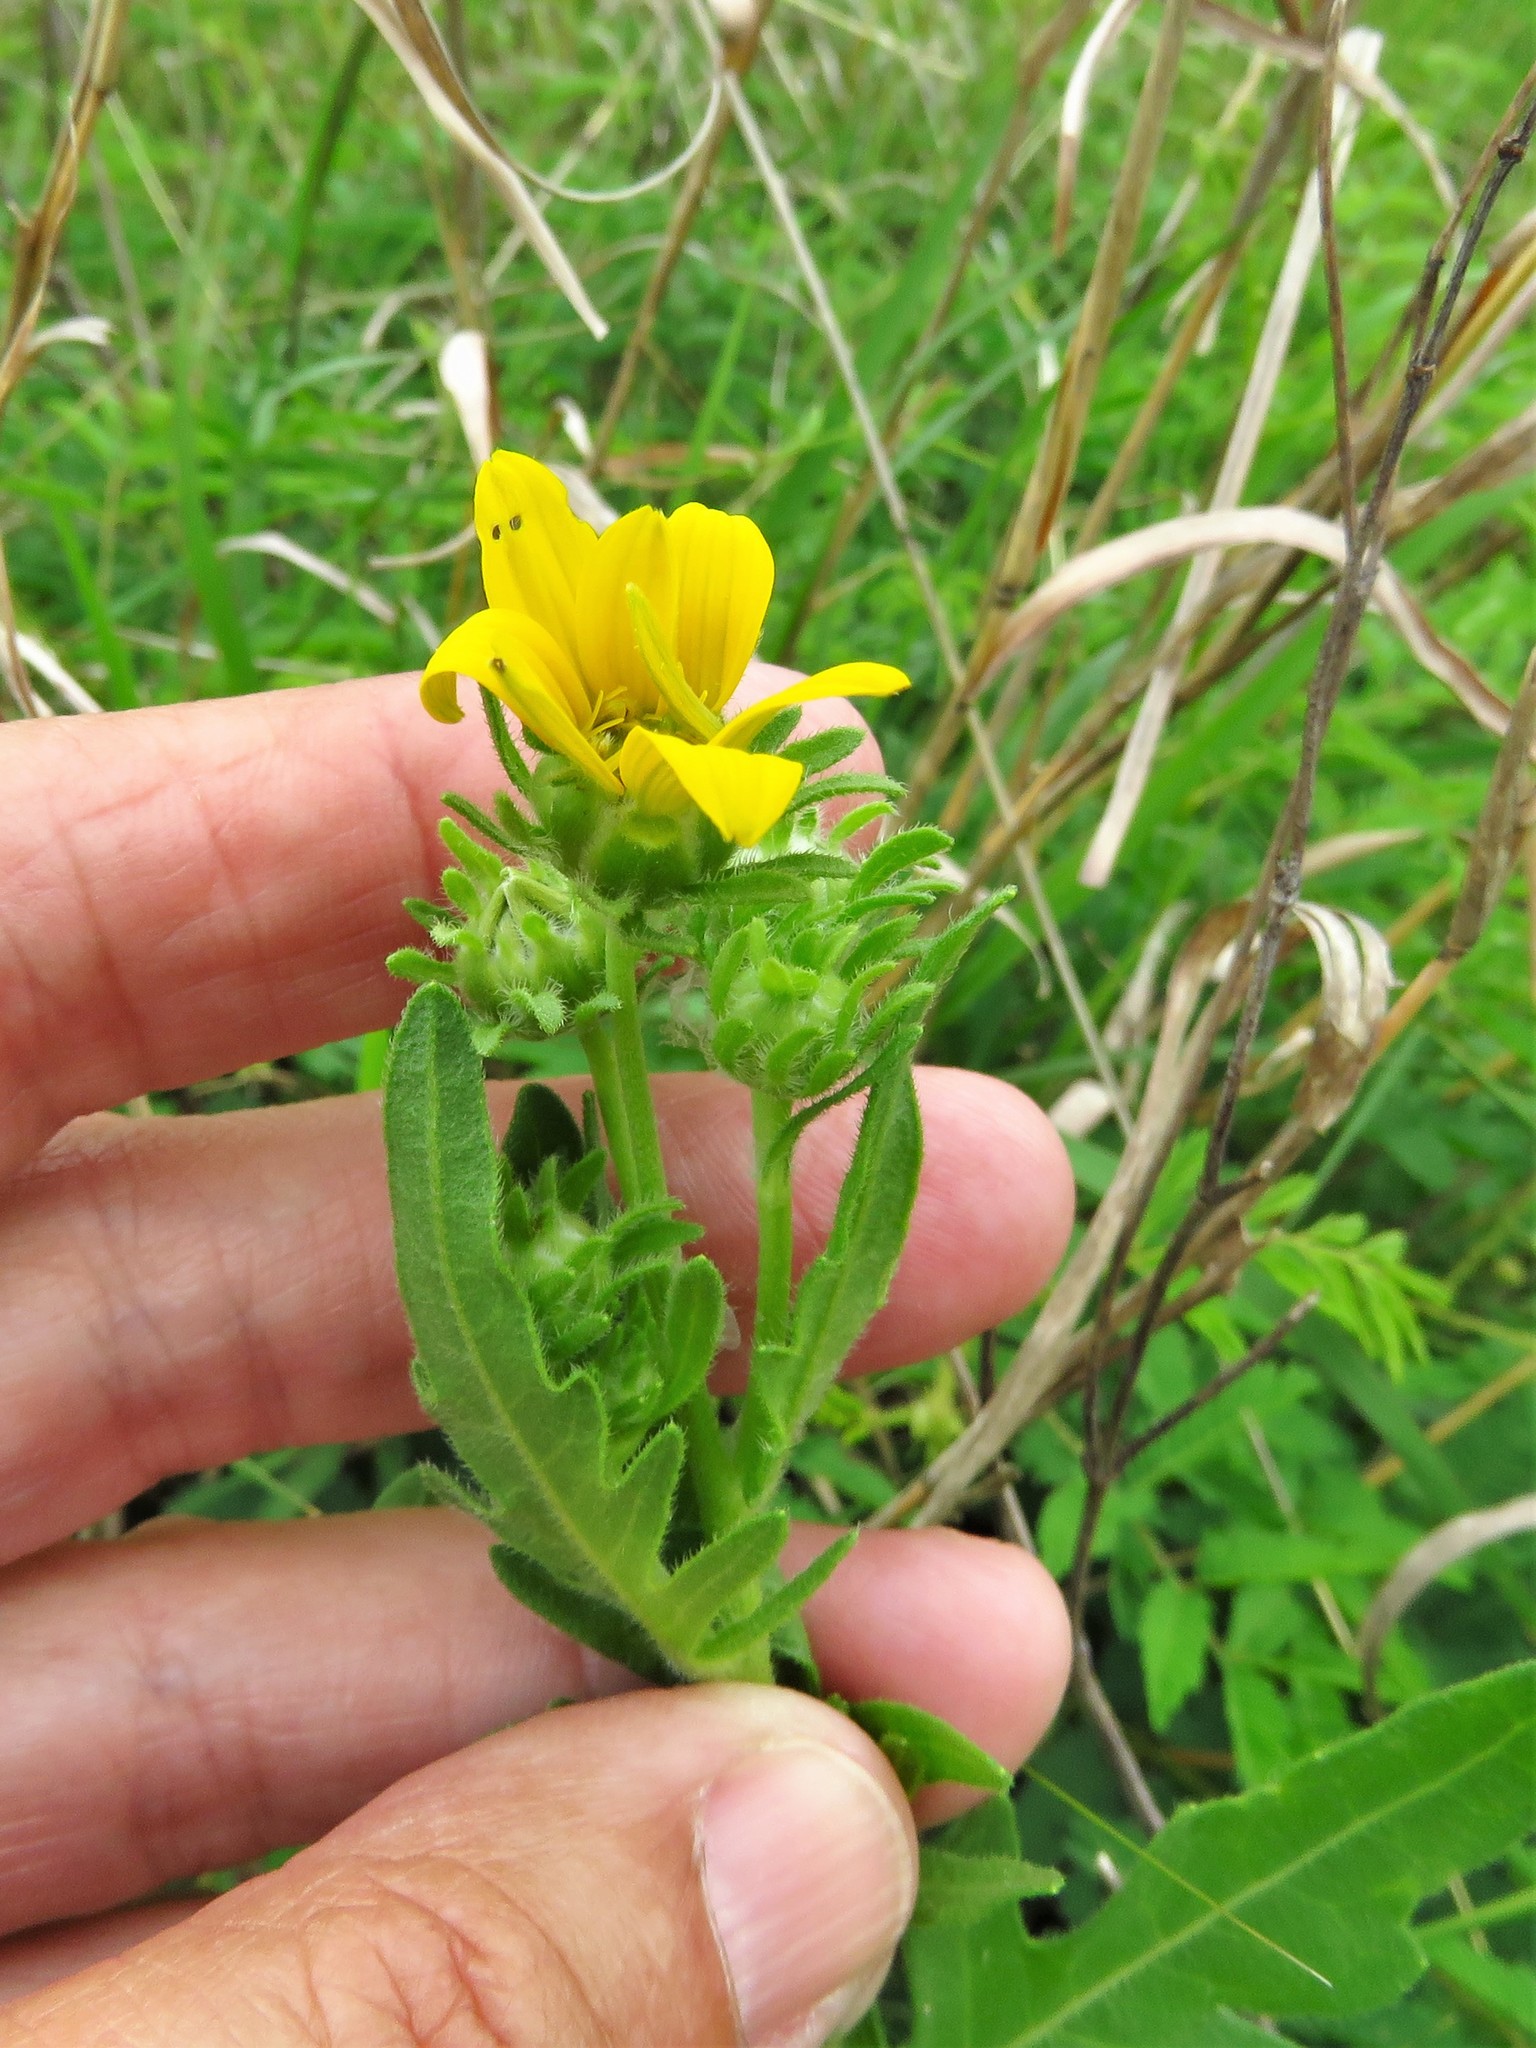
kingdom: Plantae
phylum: Tracheophyta
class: Magnoliopsida
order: Asterales
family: Asteraceae
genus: Engelmannia
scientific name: Engelmannia peristenia
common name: Engelmann's daisy
